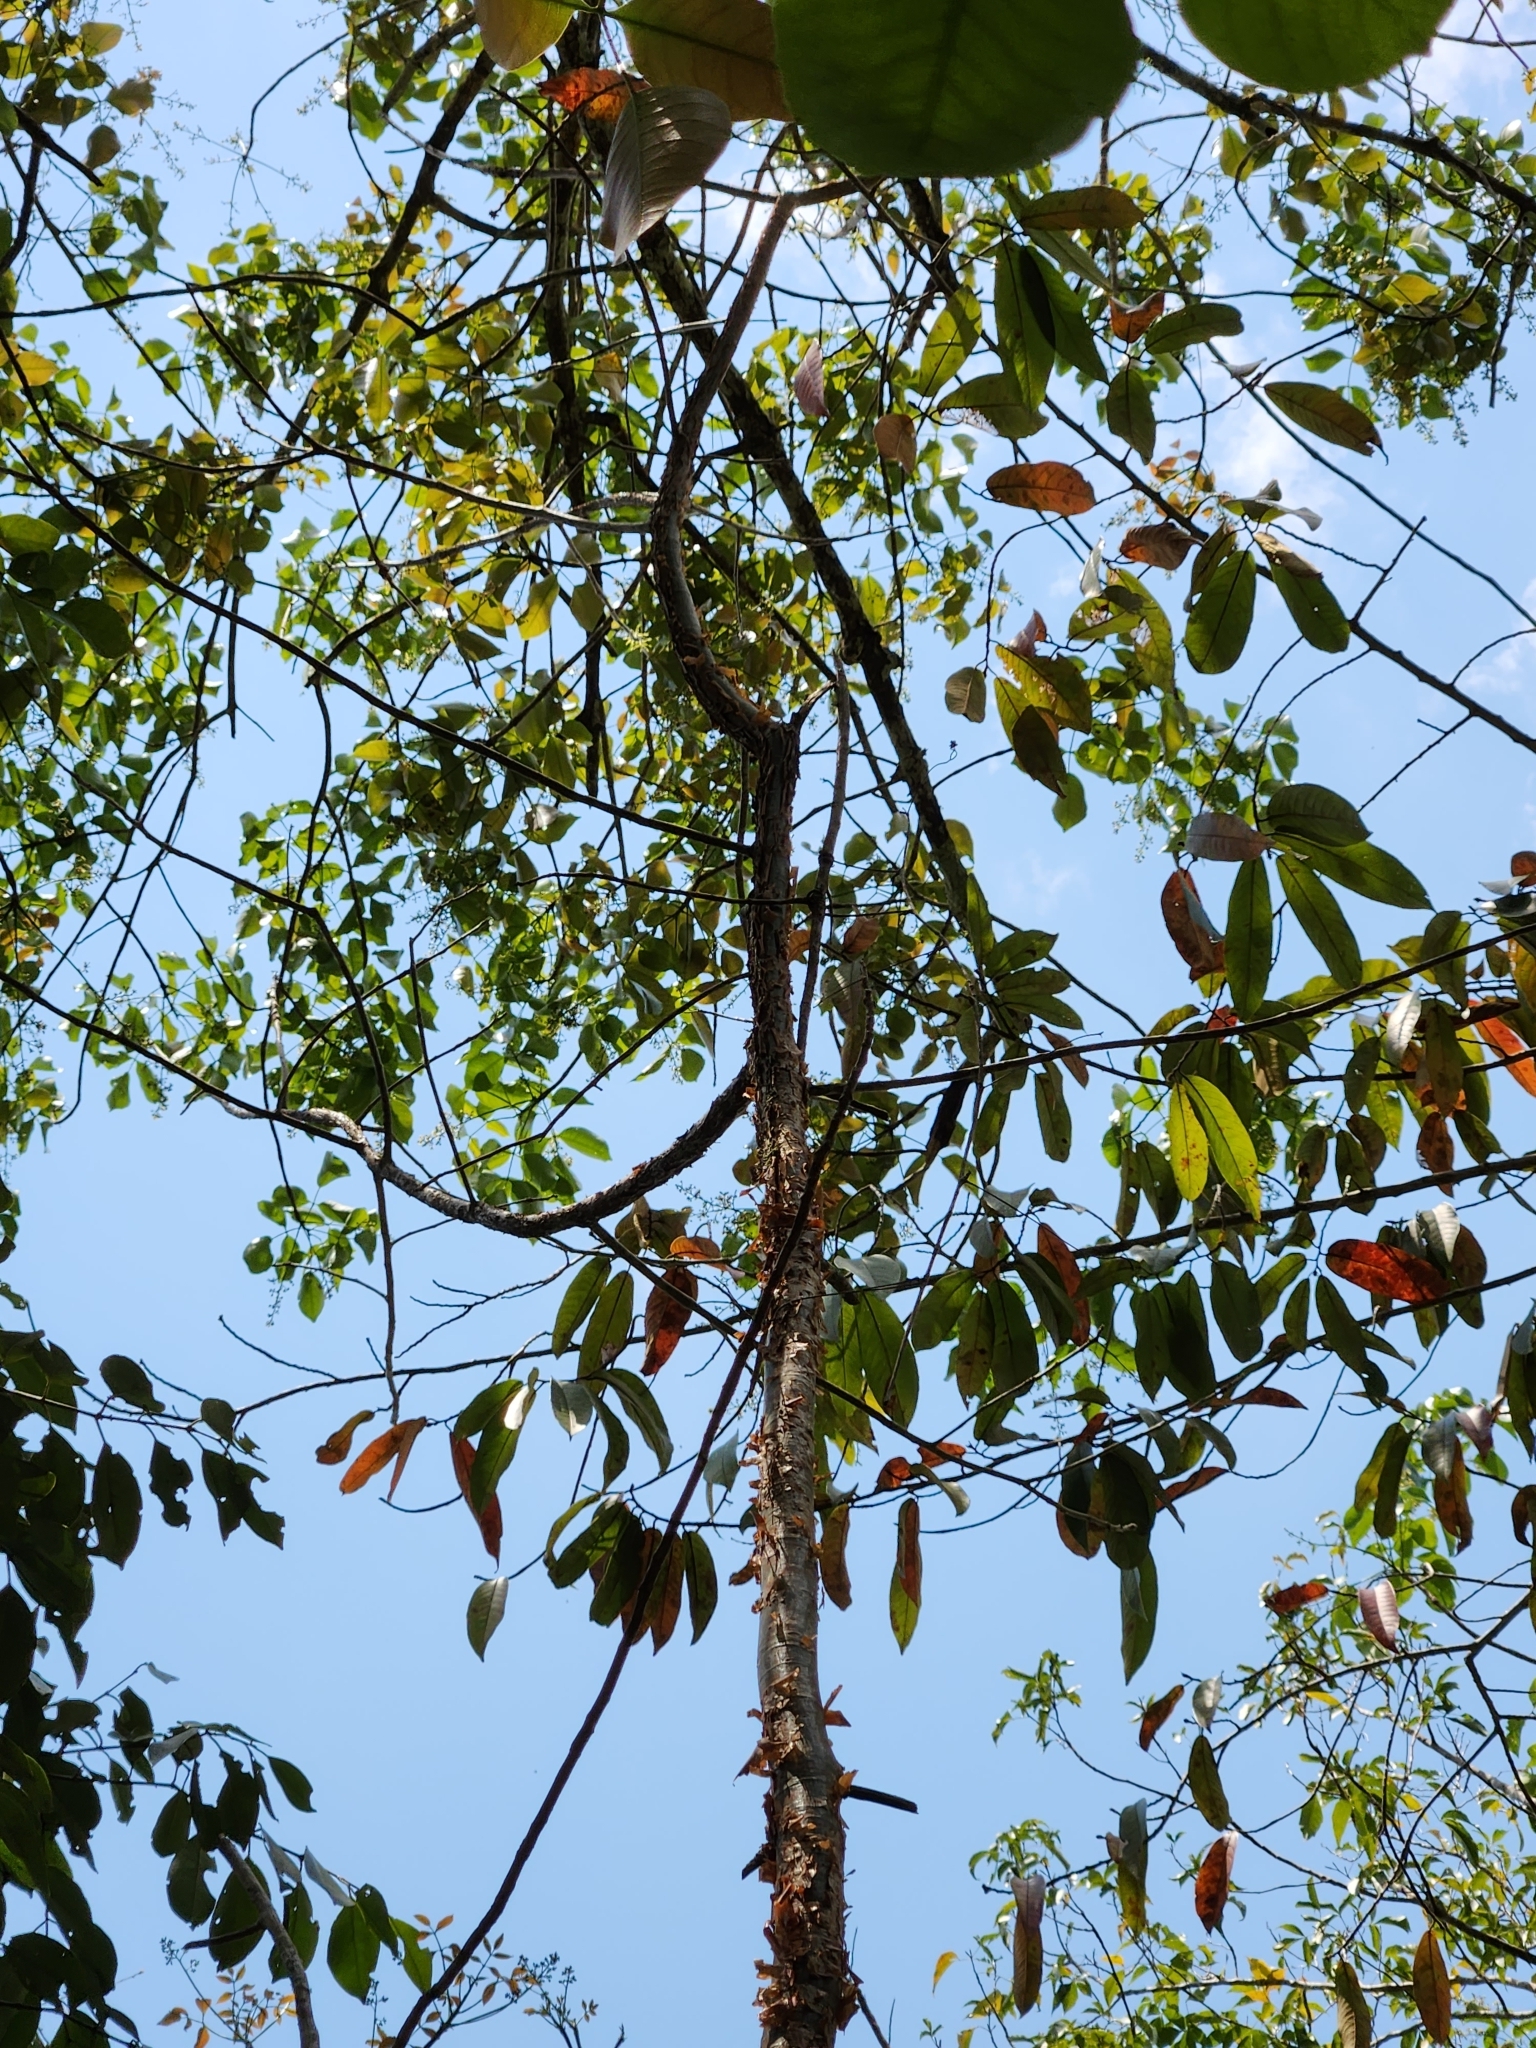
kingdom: Plantae
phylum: Tracheophyta
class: Magnoliopsida
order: Sapindales
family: Burseraceae
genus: Bursera
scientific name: Bursera simaruba
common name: Turpentine tree
